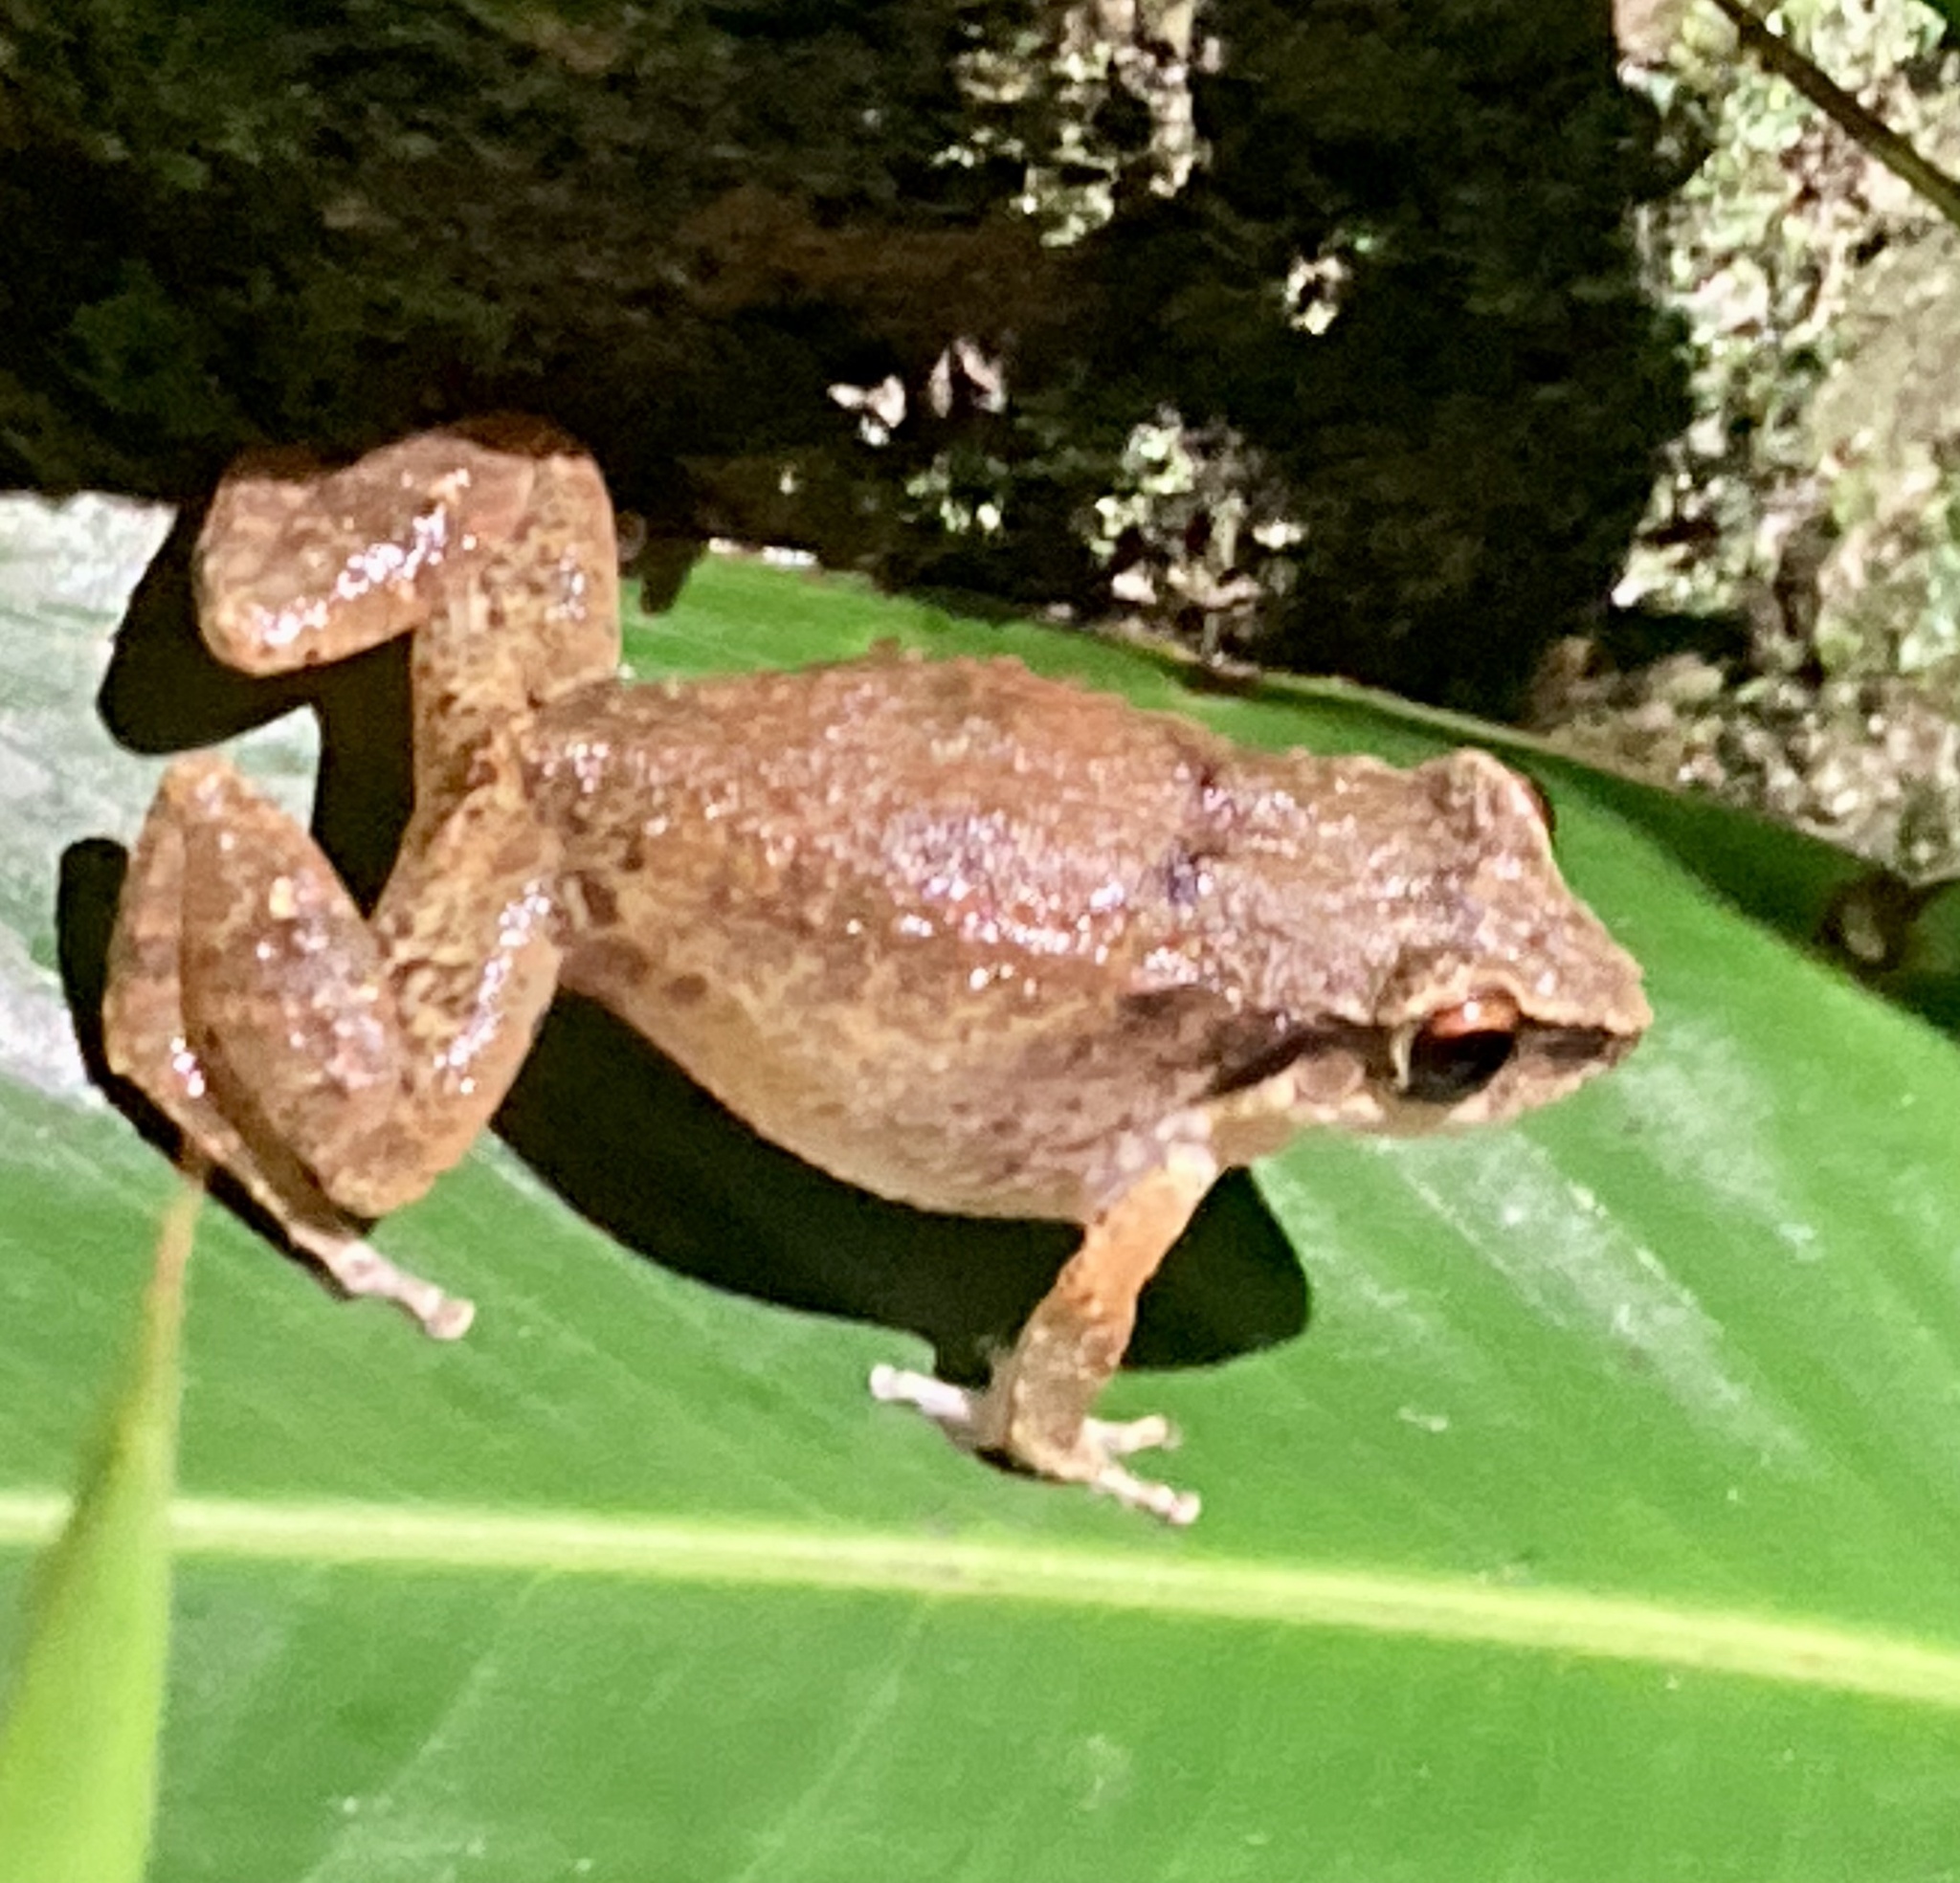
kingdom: Animalia
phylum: Chordata
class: Amphibia
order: Anura
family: Eleutherodactylidae
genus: Eleutherodactylus
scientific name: Eleutherodactylus johnstonei
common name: Johnstone's robber frog
